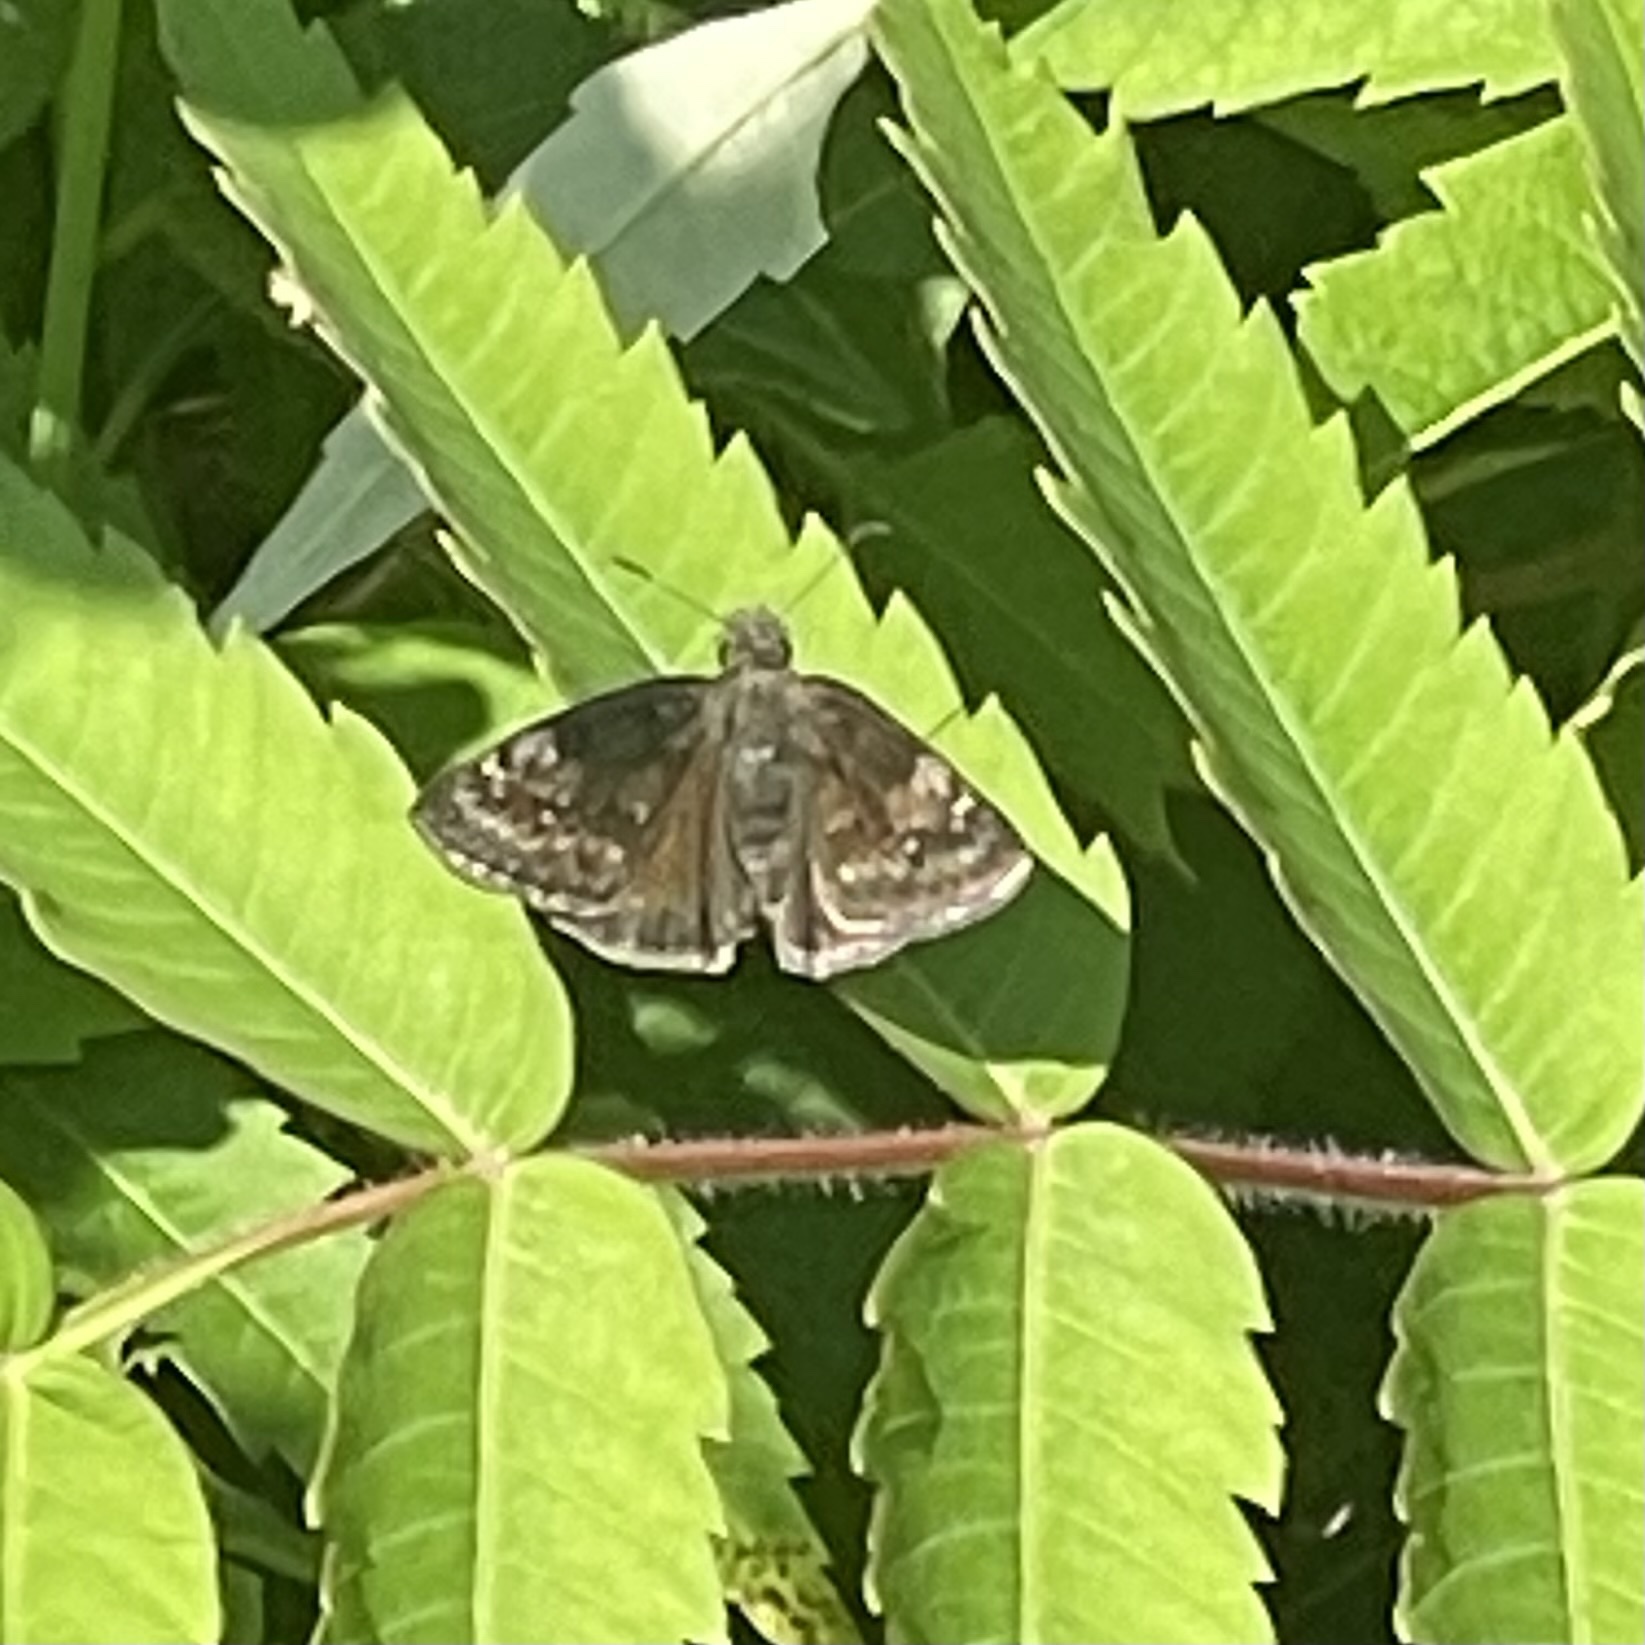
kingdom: Animalia
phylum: Arthropoda
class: Insecta
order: Lepidoptera
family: Hesperiidae
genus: Erynnis
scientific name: Erynnis baptisiae
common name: Wild indigo duskywing
